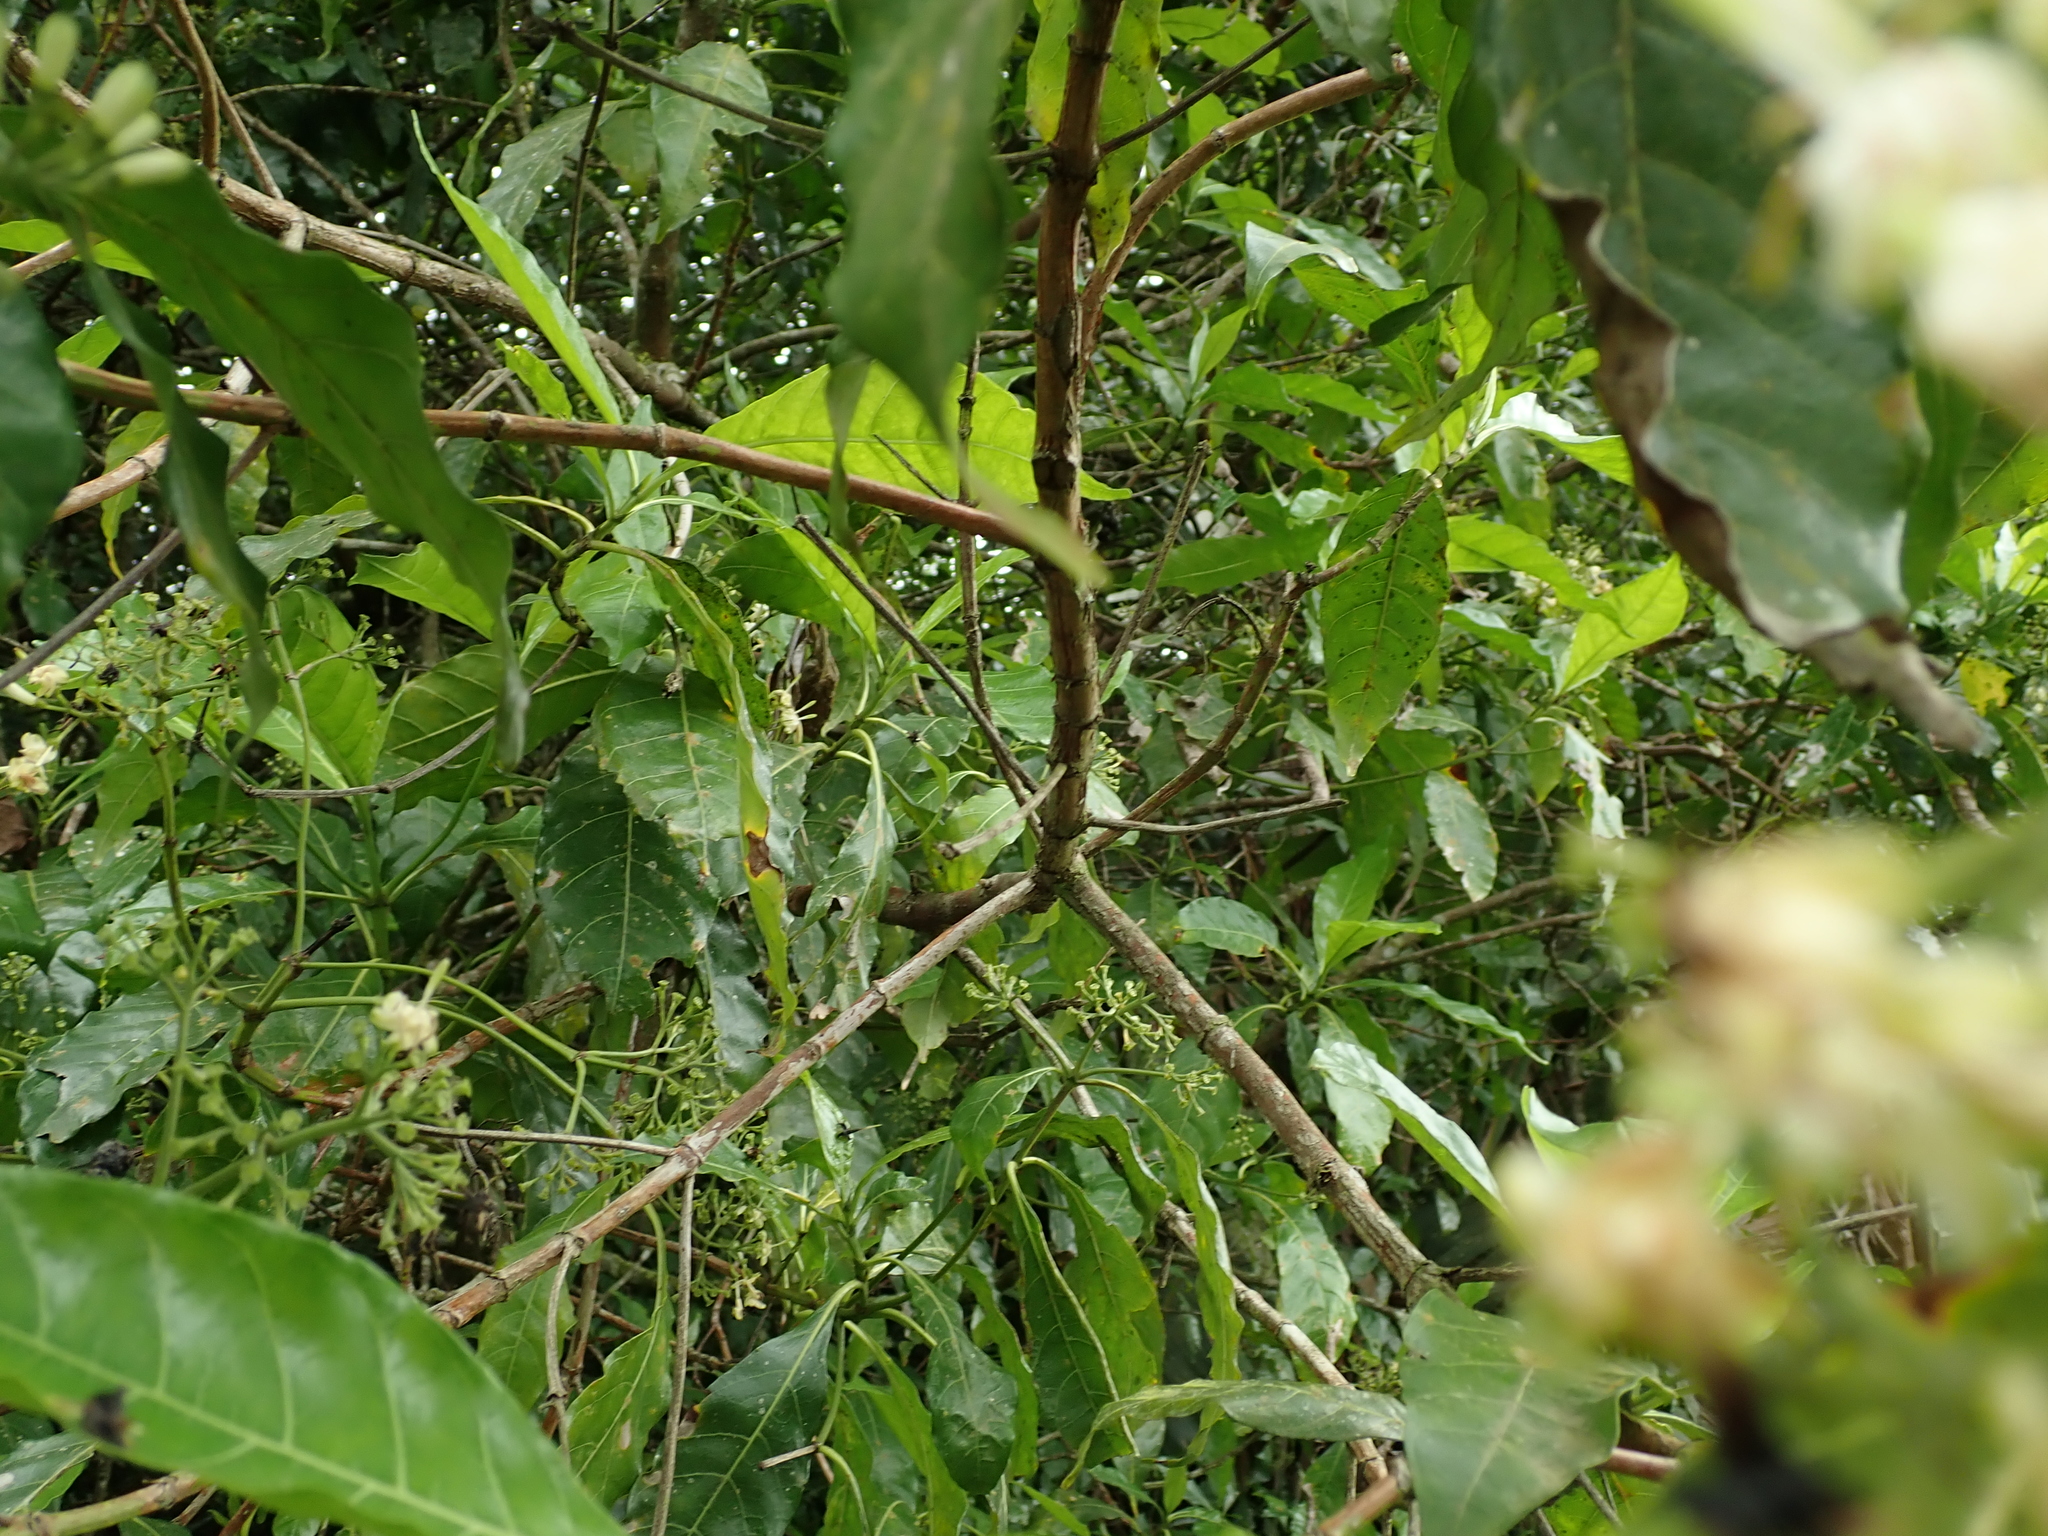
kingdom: Plantae
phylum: Tracheophyta
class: Magnoliopsida
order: Gentianales
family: Rubiaceae
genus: Tarenna
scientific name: Tarenna pavettoides
